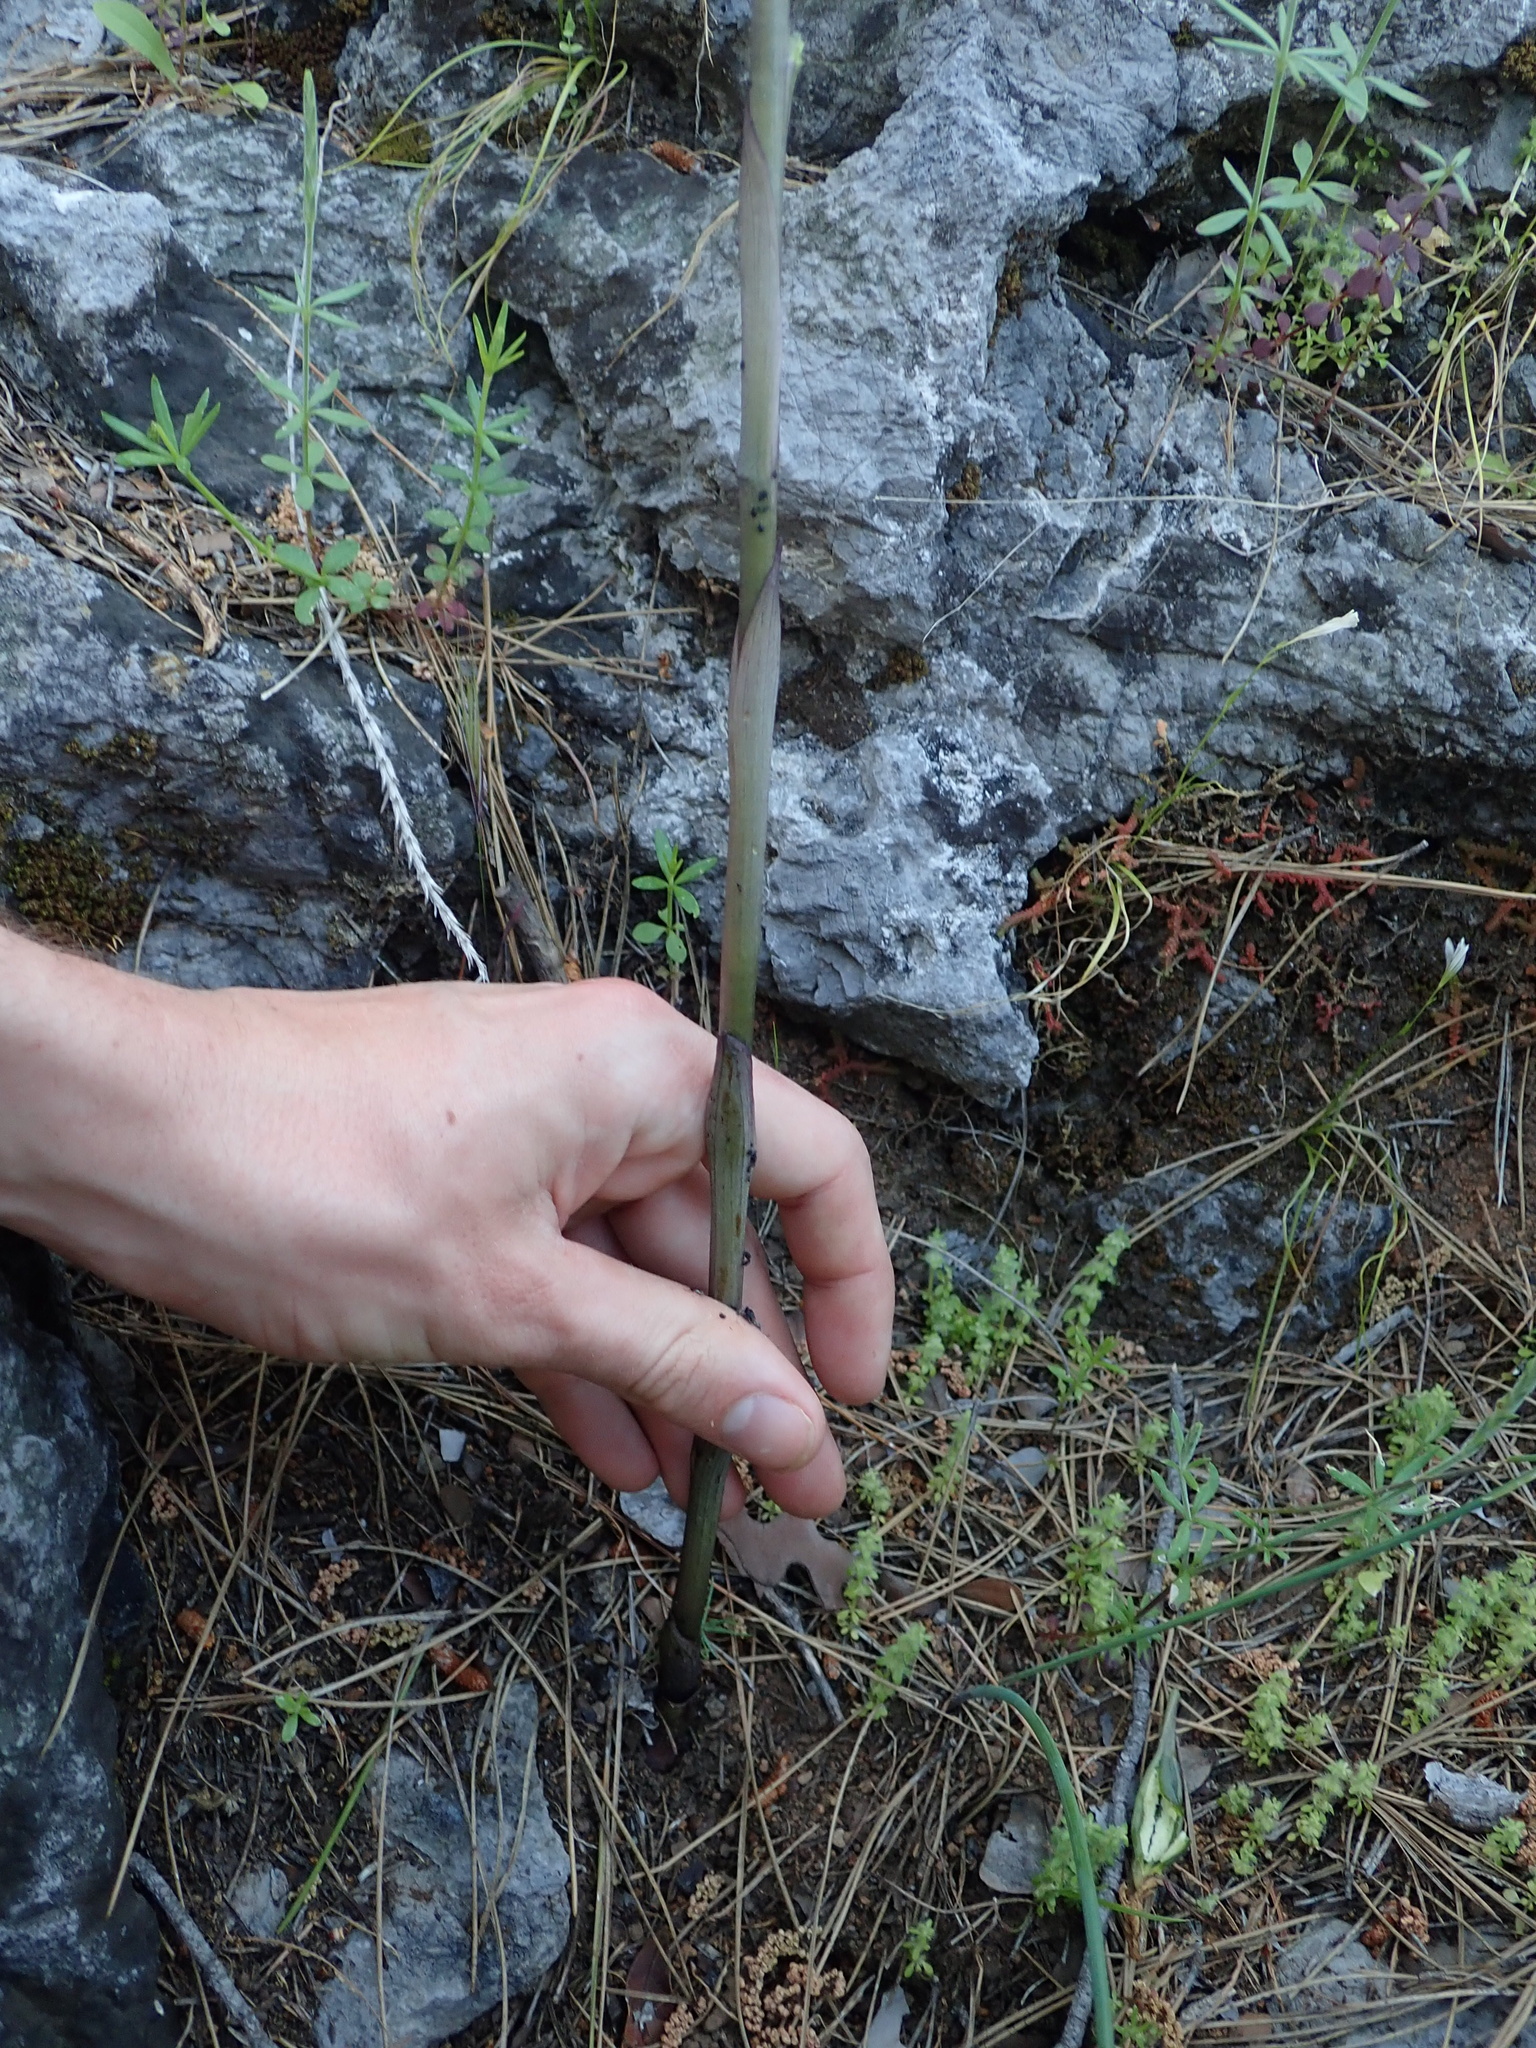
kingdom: Plantae
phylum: Tracheophyta
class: Liliopsida
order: Asparagales
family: Orchidaceae
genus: Limodorum
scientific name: Limodorum abortivum
